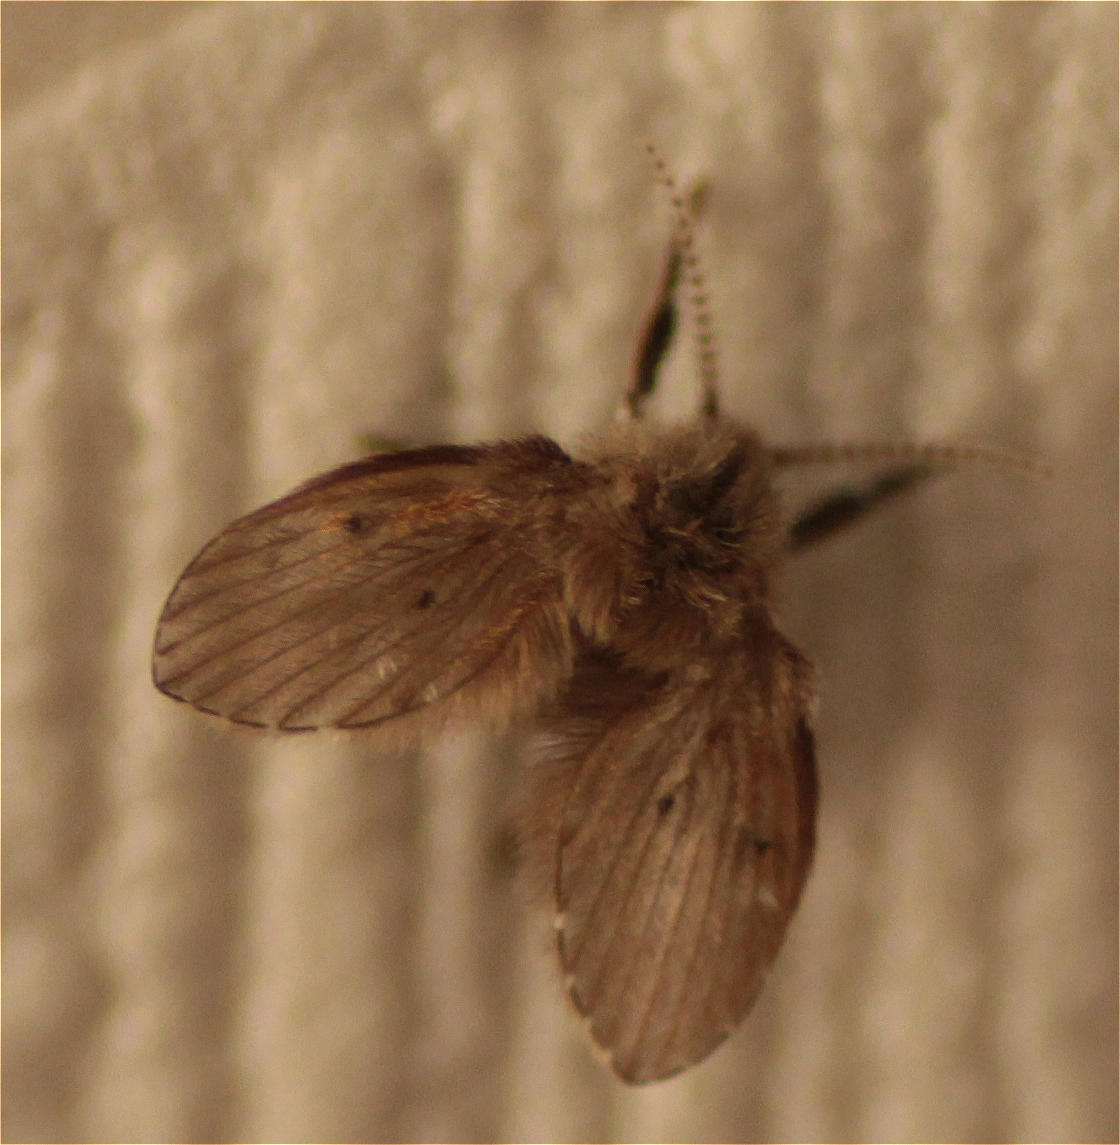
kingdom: Animalia
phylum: Arthropoda
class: Insecta
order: Diptera
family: Psychodidae
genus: Clogmia
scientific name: Clogmia albipunctatus
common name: White-spotted moth fly
